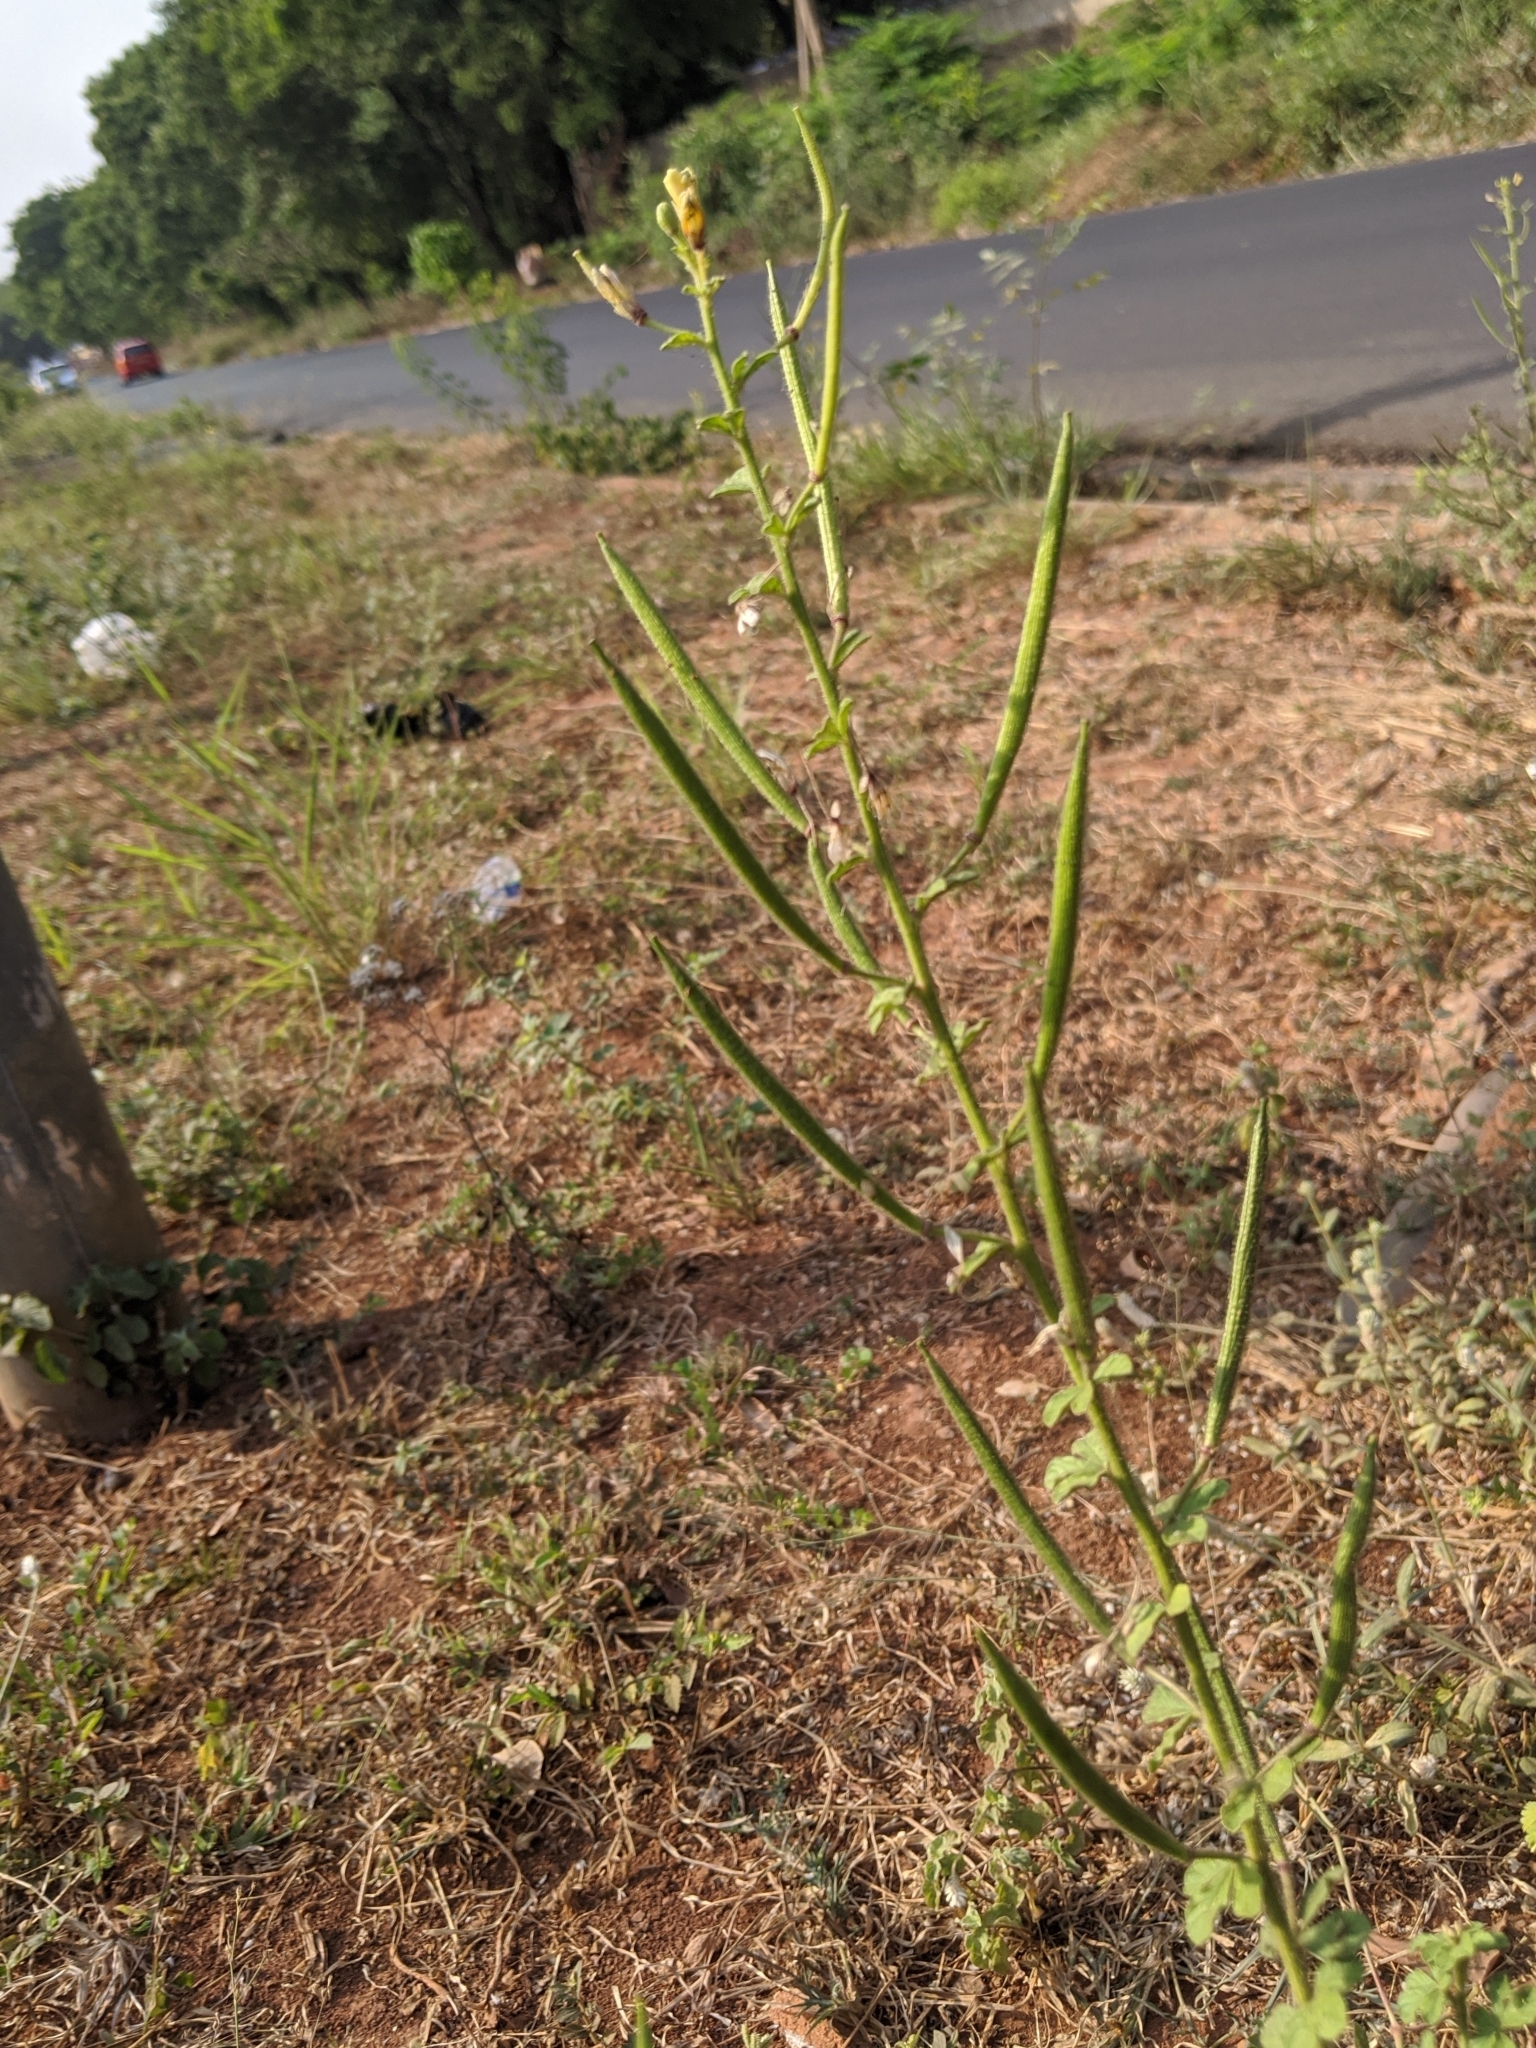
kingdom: Plantae
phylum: Tracheophyta
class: Magnoliopsida
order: Brassicales
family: Cleomaceae
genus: Arivela
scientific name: Arivela viscosa
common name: Asian spiderflower
